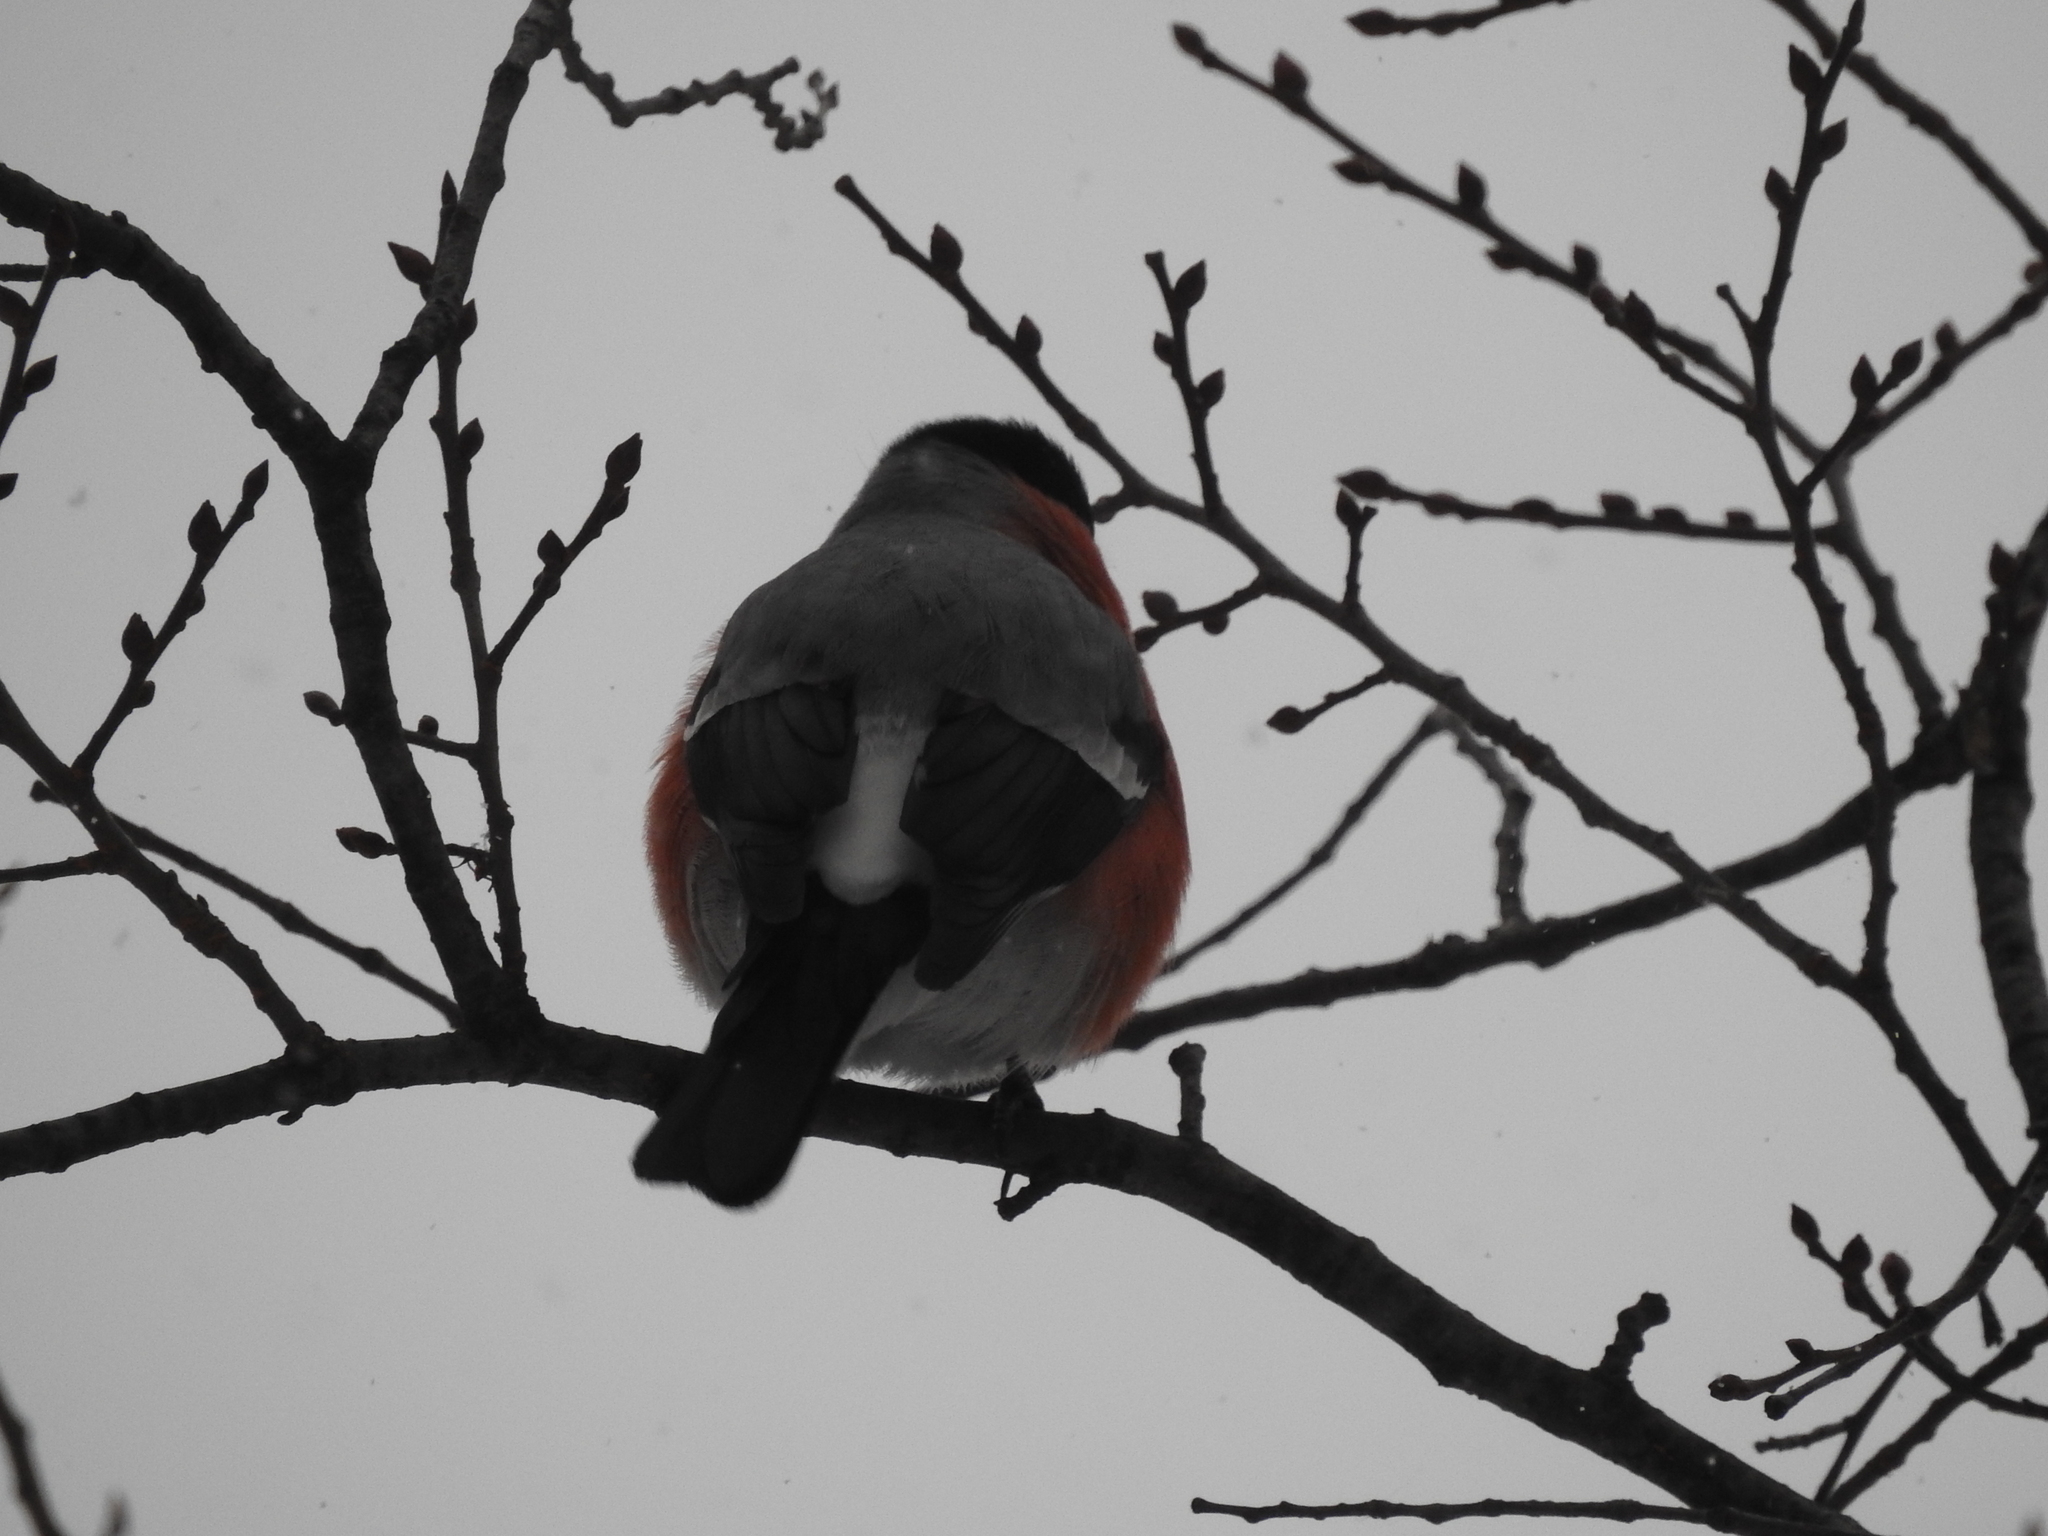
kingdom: Animalia
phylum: Chordata
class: Aves
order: Passeriformes
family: Fringillidae
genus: Pyrrhula
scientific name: Pyrrhula pyrrhula
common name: Eurasian bullfinch
